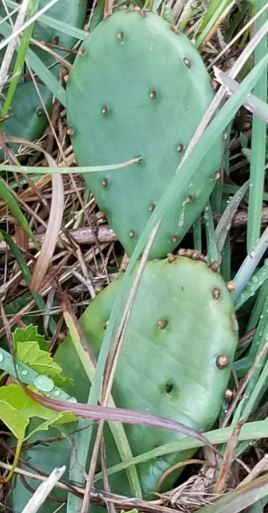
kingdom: Plantae
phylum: Tracheophyta
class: Magnoliopsida
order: Caryophyllales
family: Cactaceae
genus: Opuntia
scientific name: Opuntia humifusa
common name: Eastern prickly-pear
